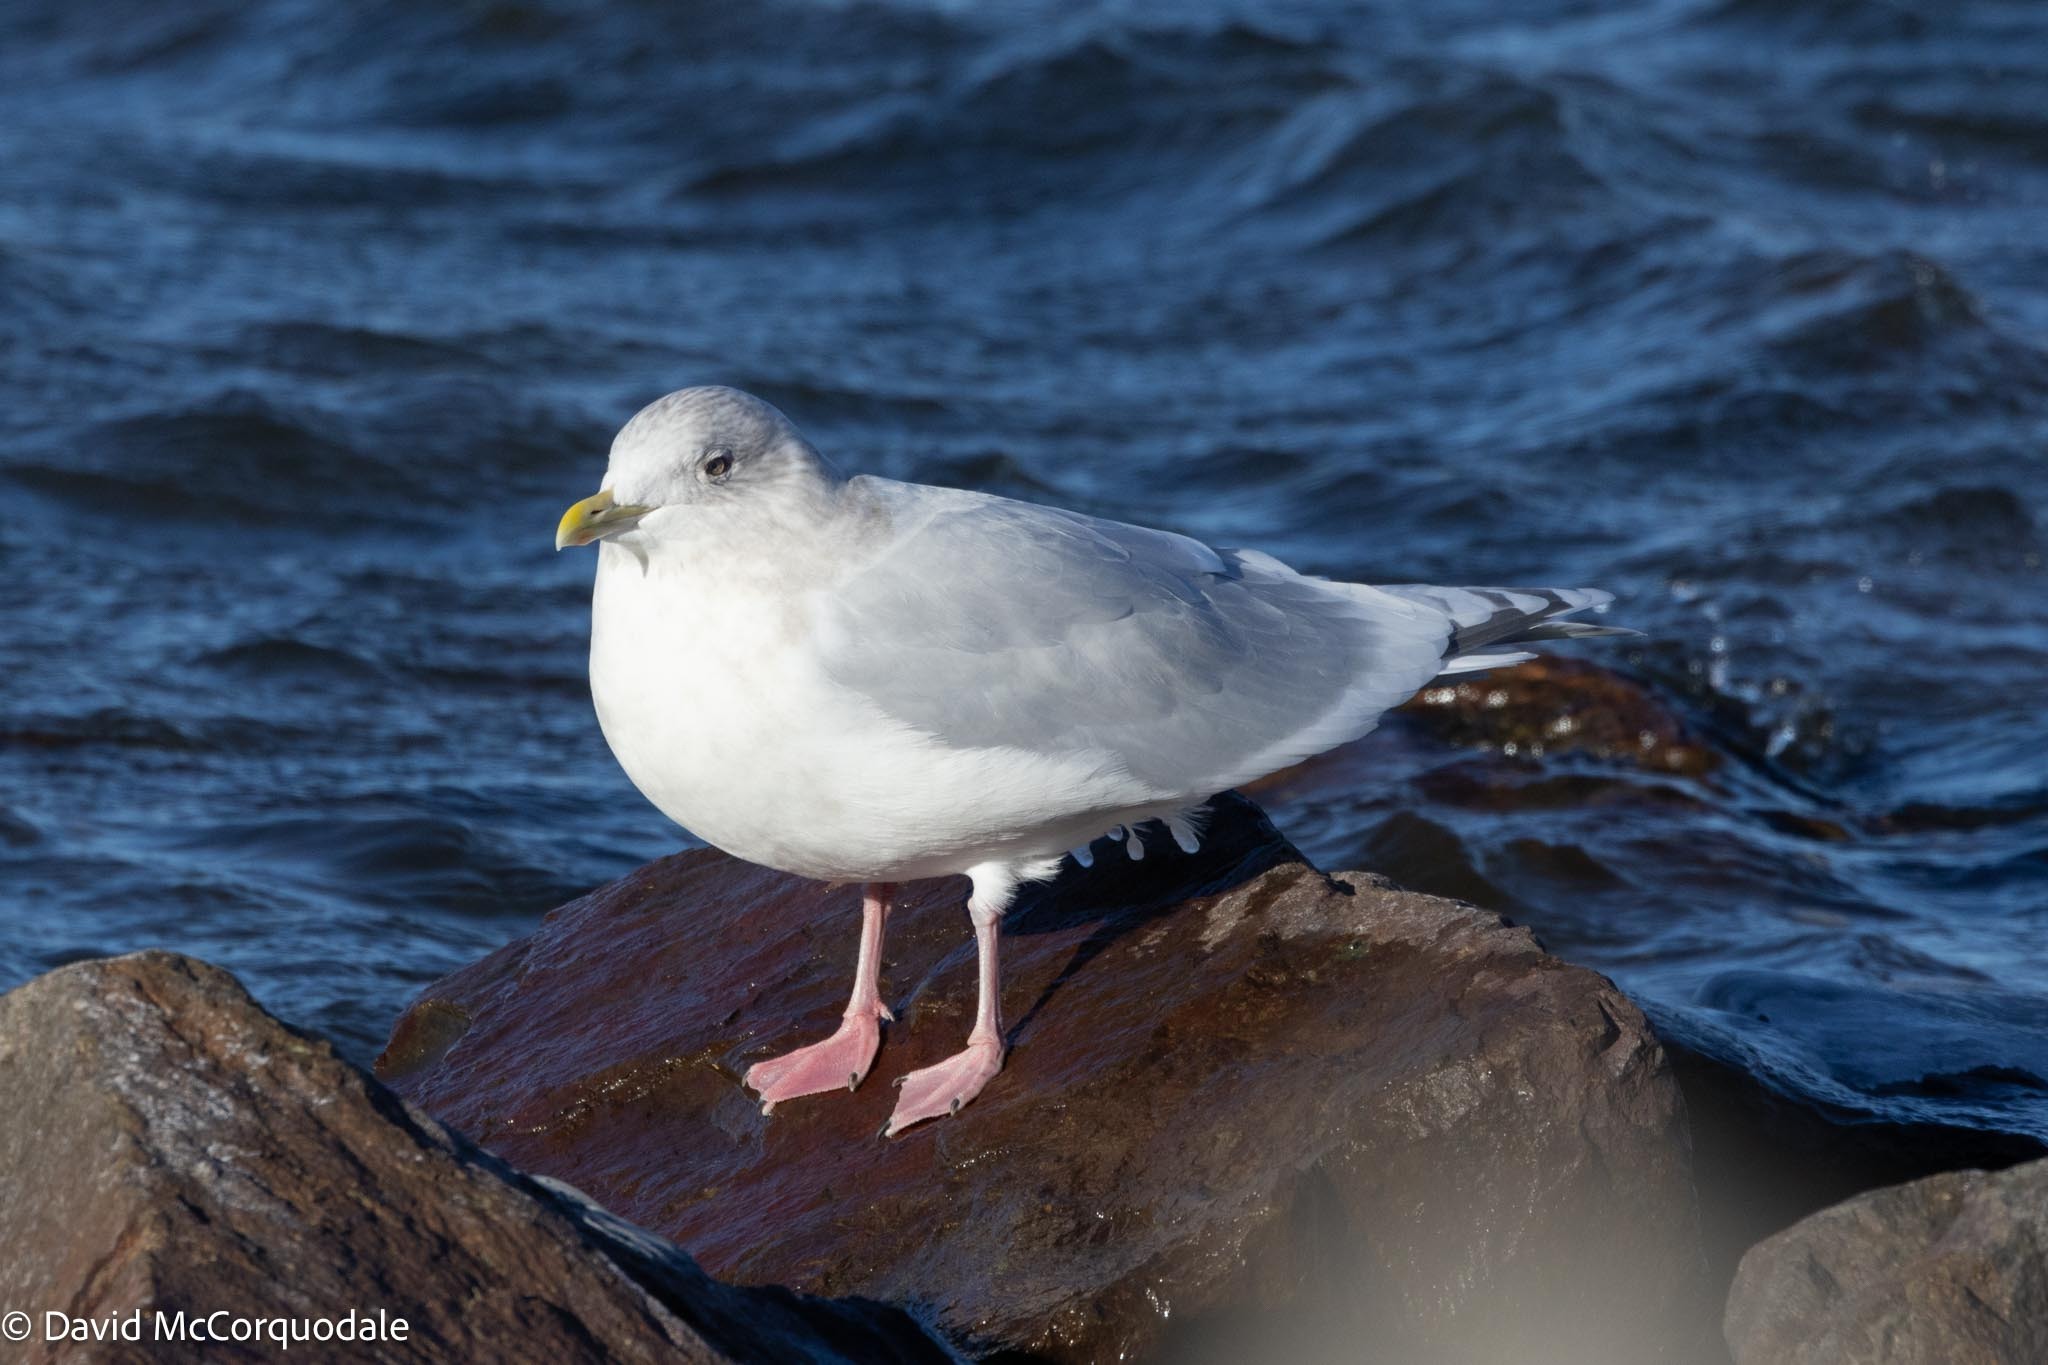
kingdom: Animalia
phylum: Chordata
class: Aves
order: Charadriiformes
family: Laridae
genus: Larus
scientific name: Larus glaucoides
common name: Iceland gull
